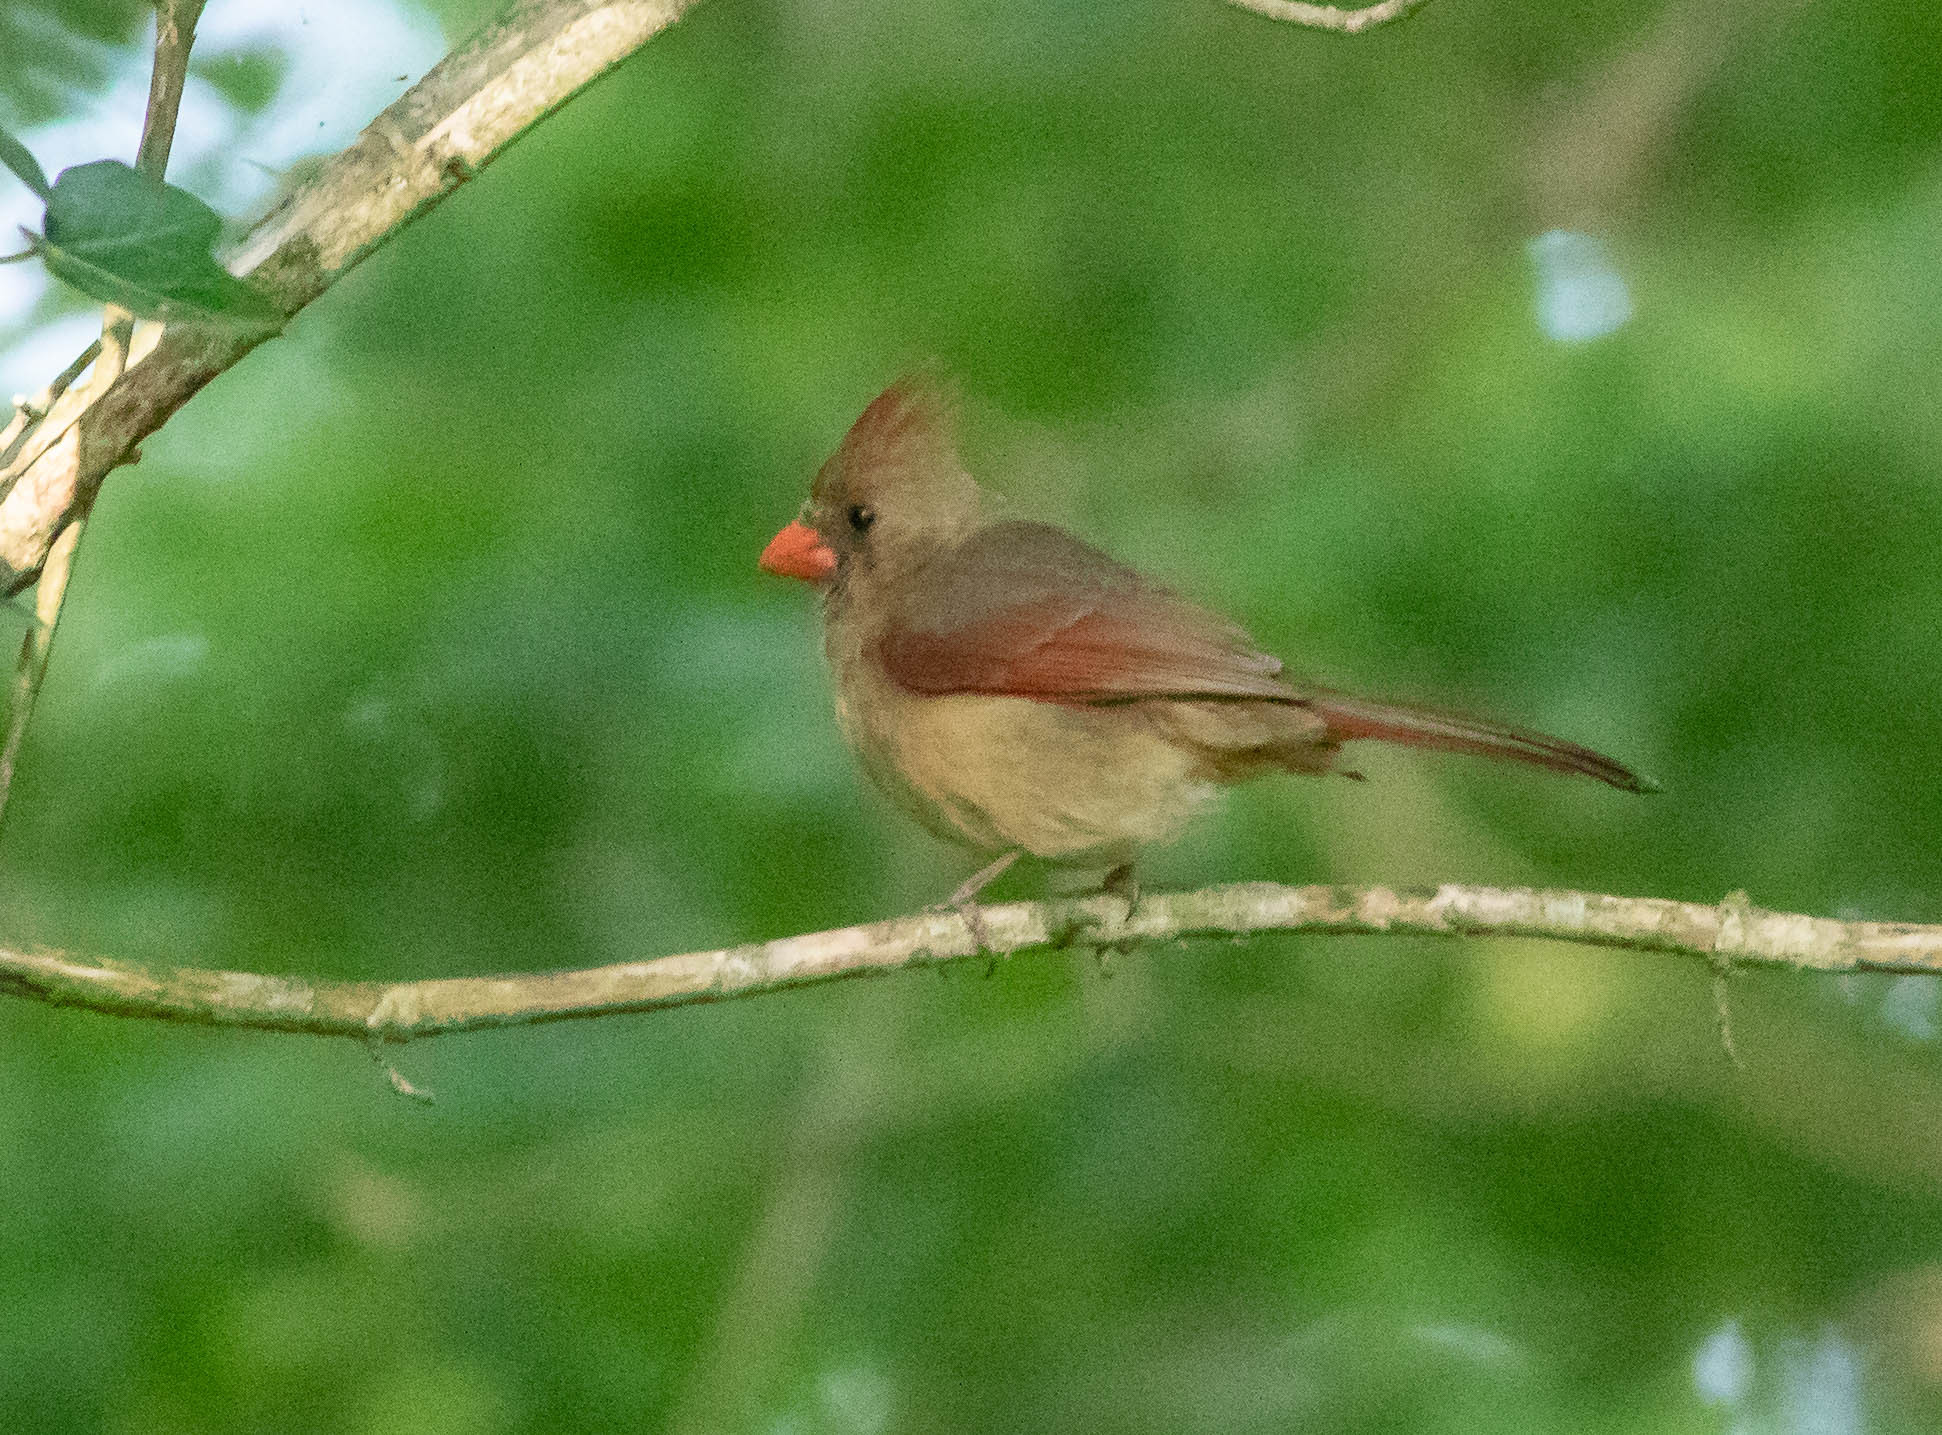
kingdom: Animalia
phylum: Chordata
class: Aves
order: Passeriformes
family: Cardinalidae
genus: Cardinalis
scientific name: Cardinalis cardinalis
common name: Northern cardinal
